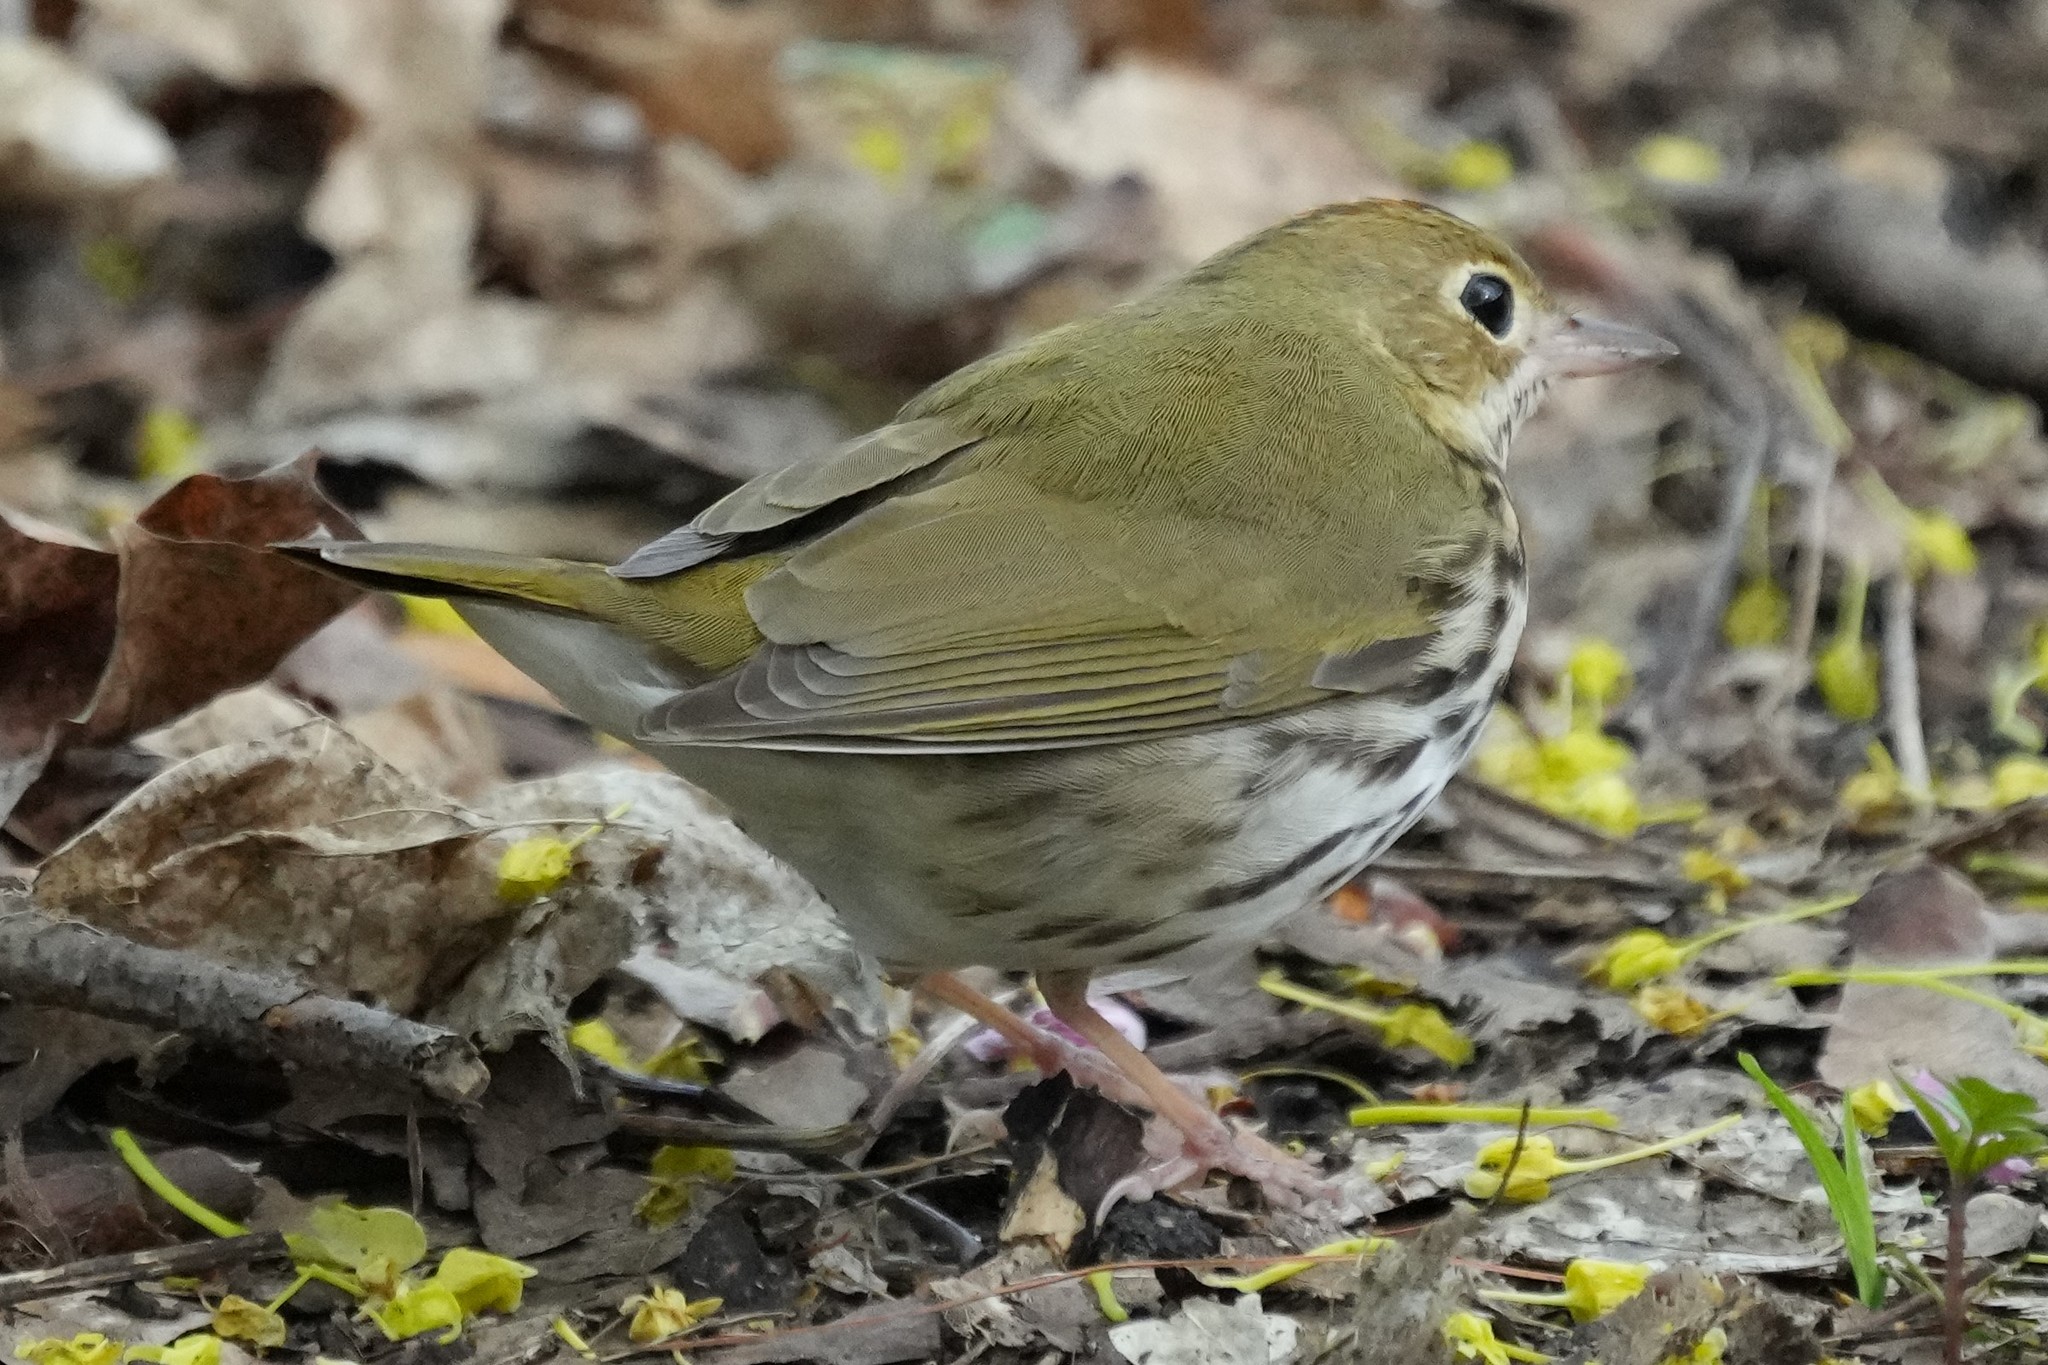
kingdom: Animalia
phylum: Chordata
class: Aves
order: Passeriformes
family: Parulidae
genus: Seiurus
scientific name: Seiurus aurocapilla
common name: Ovenbird
